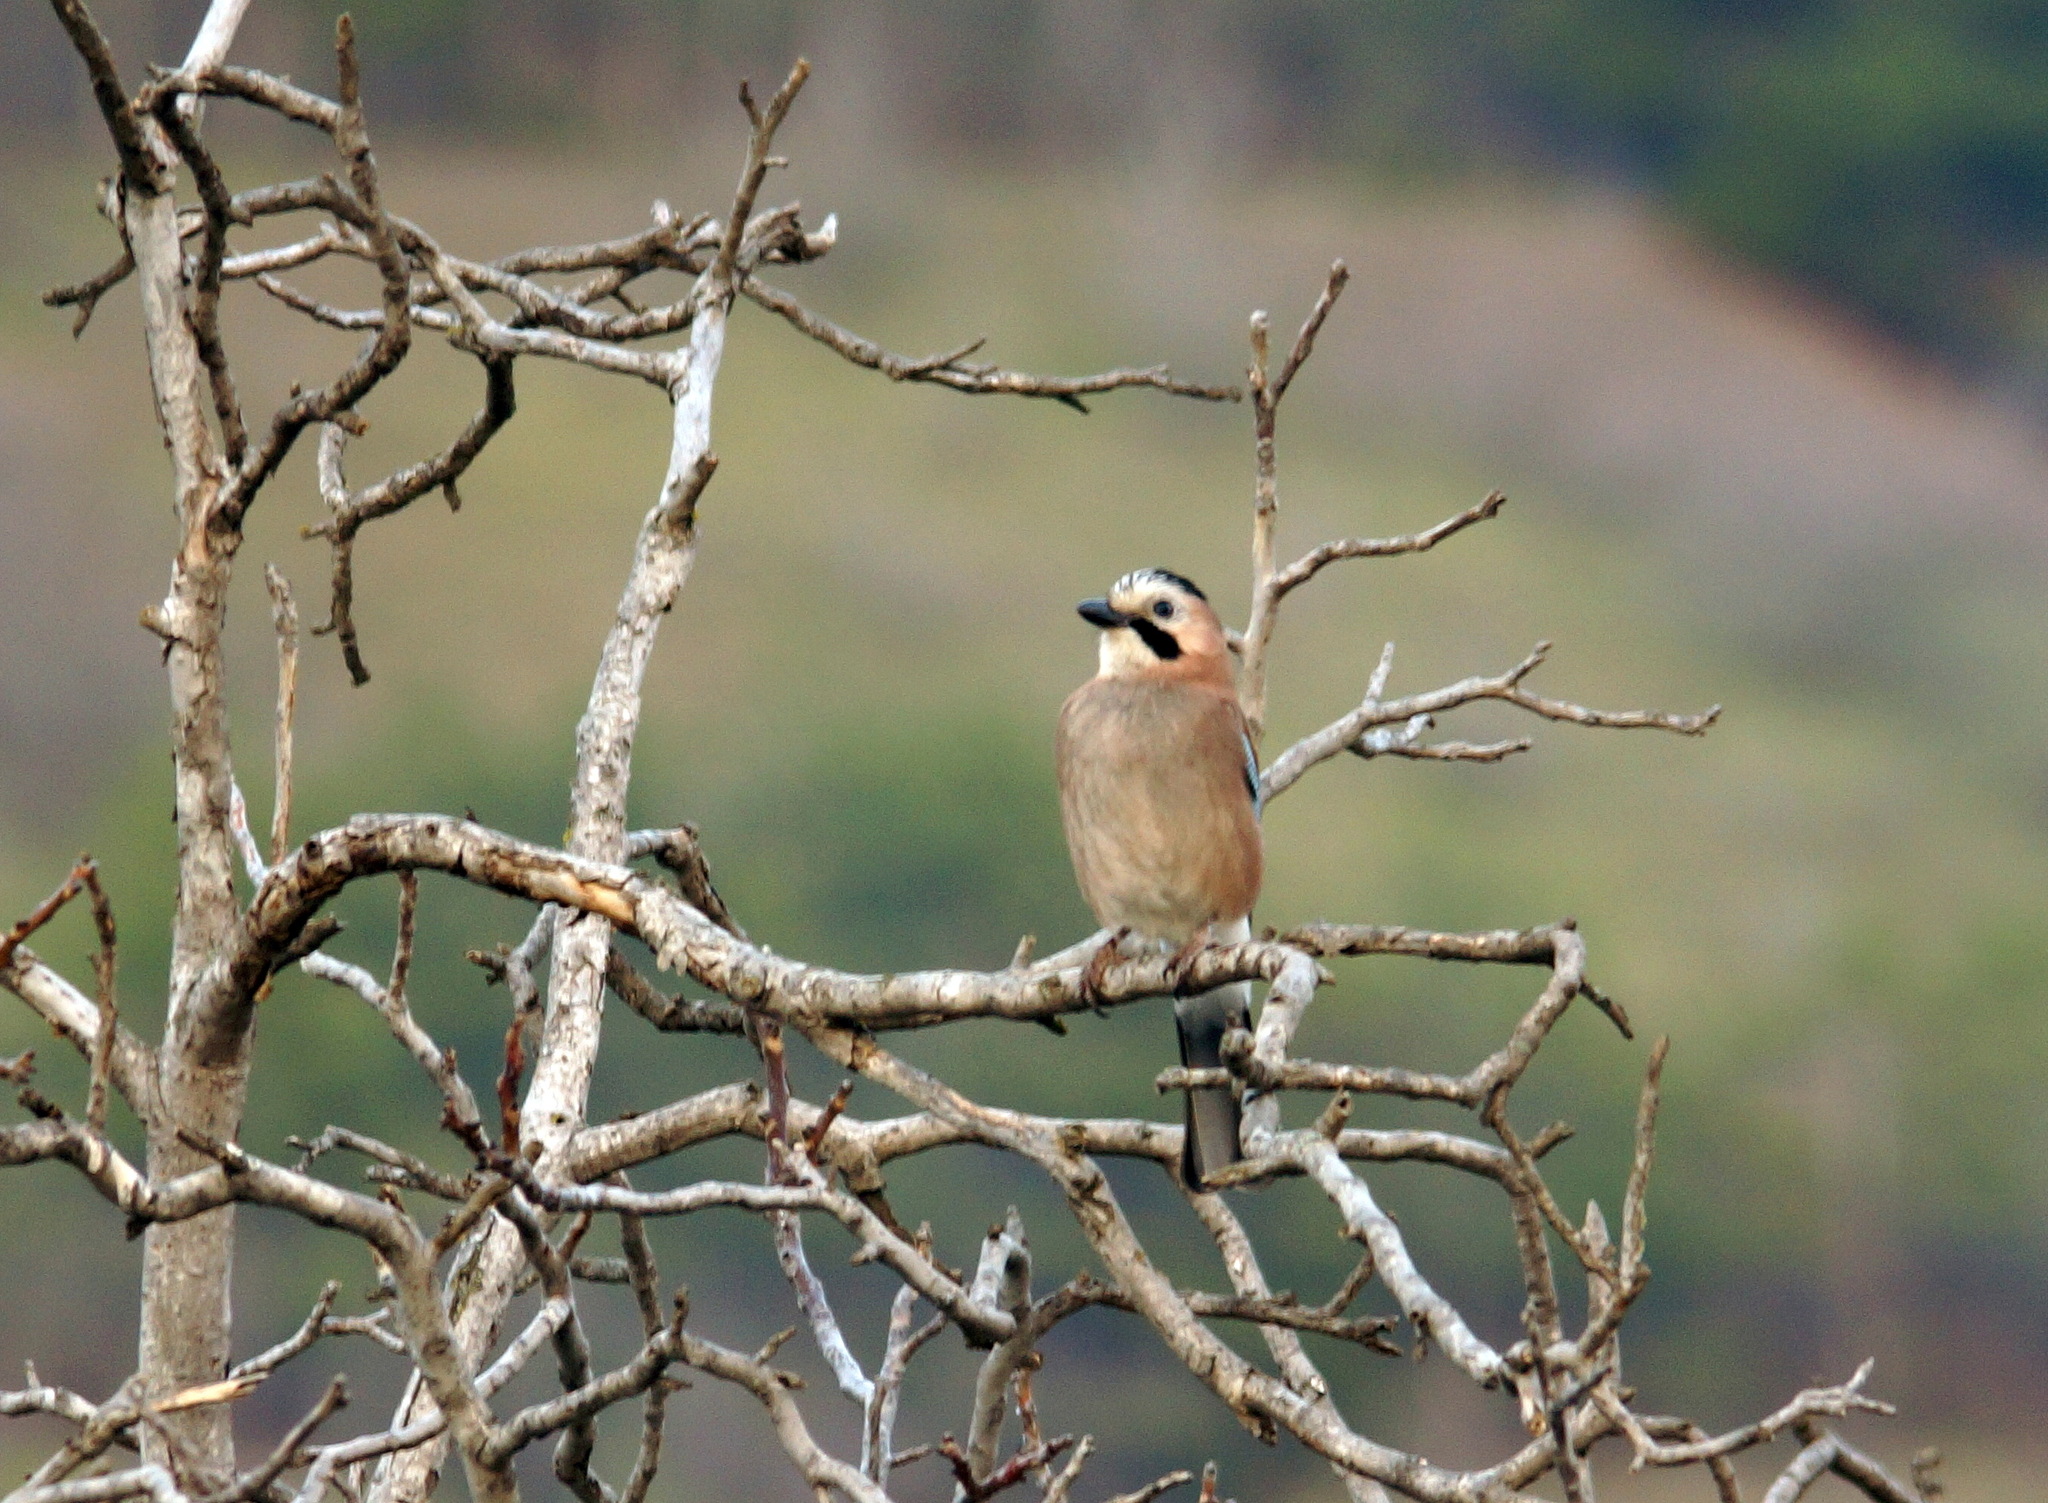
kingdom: Animalia
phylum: Chordata
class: Aves
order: Passeriformes
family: Corvidae
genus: Garrulus
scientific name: Garrulus glandarius
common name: Eurasian jay
